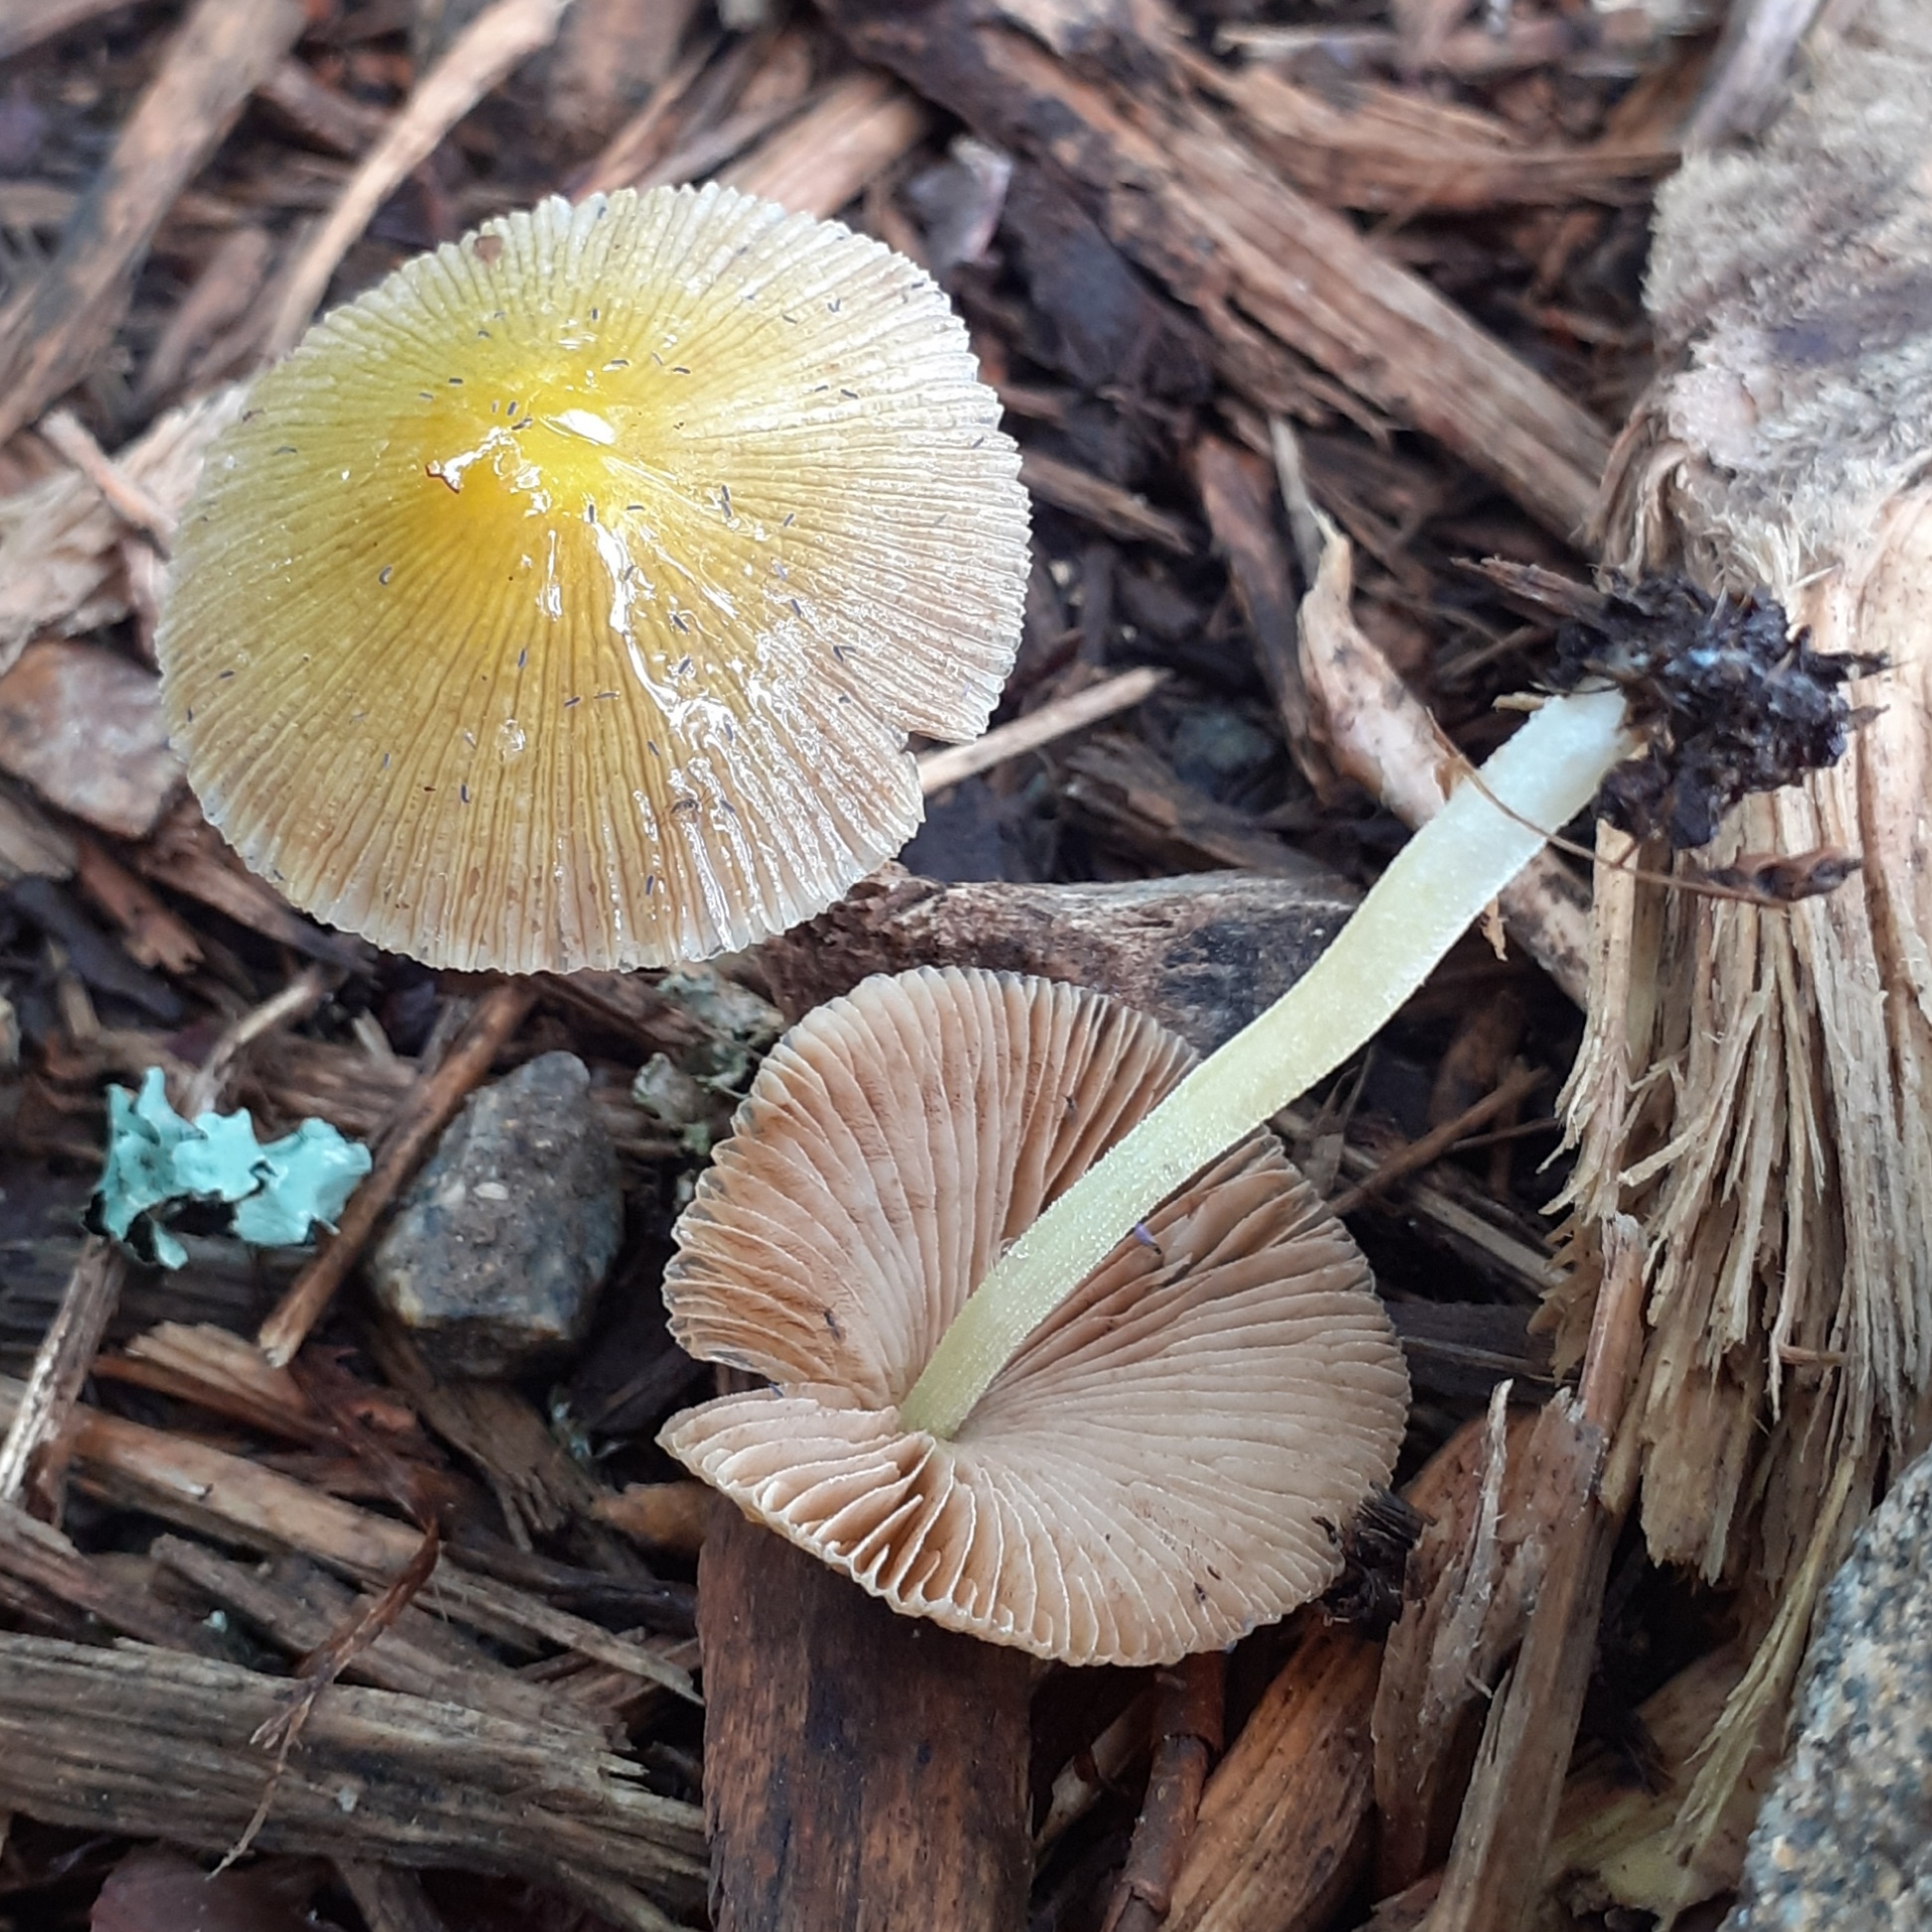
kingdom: Fungi
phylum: Basidiomycota
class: Agaricomycetes
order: Agaricales
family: Bolbitiaceae
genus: Bolbitius
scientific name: Bolbitius titubans
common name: Yellow fieldcap
